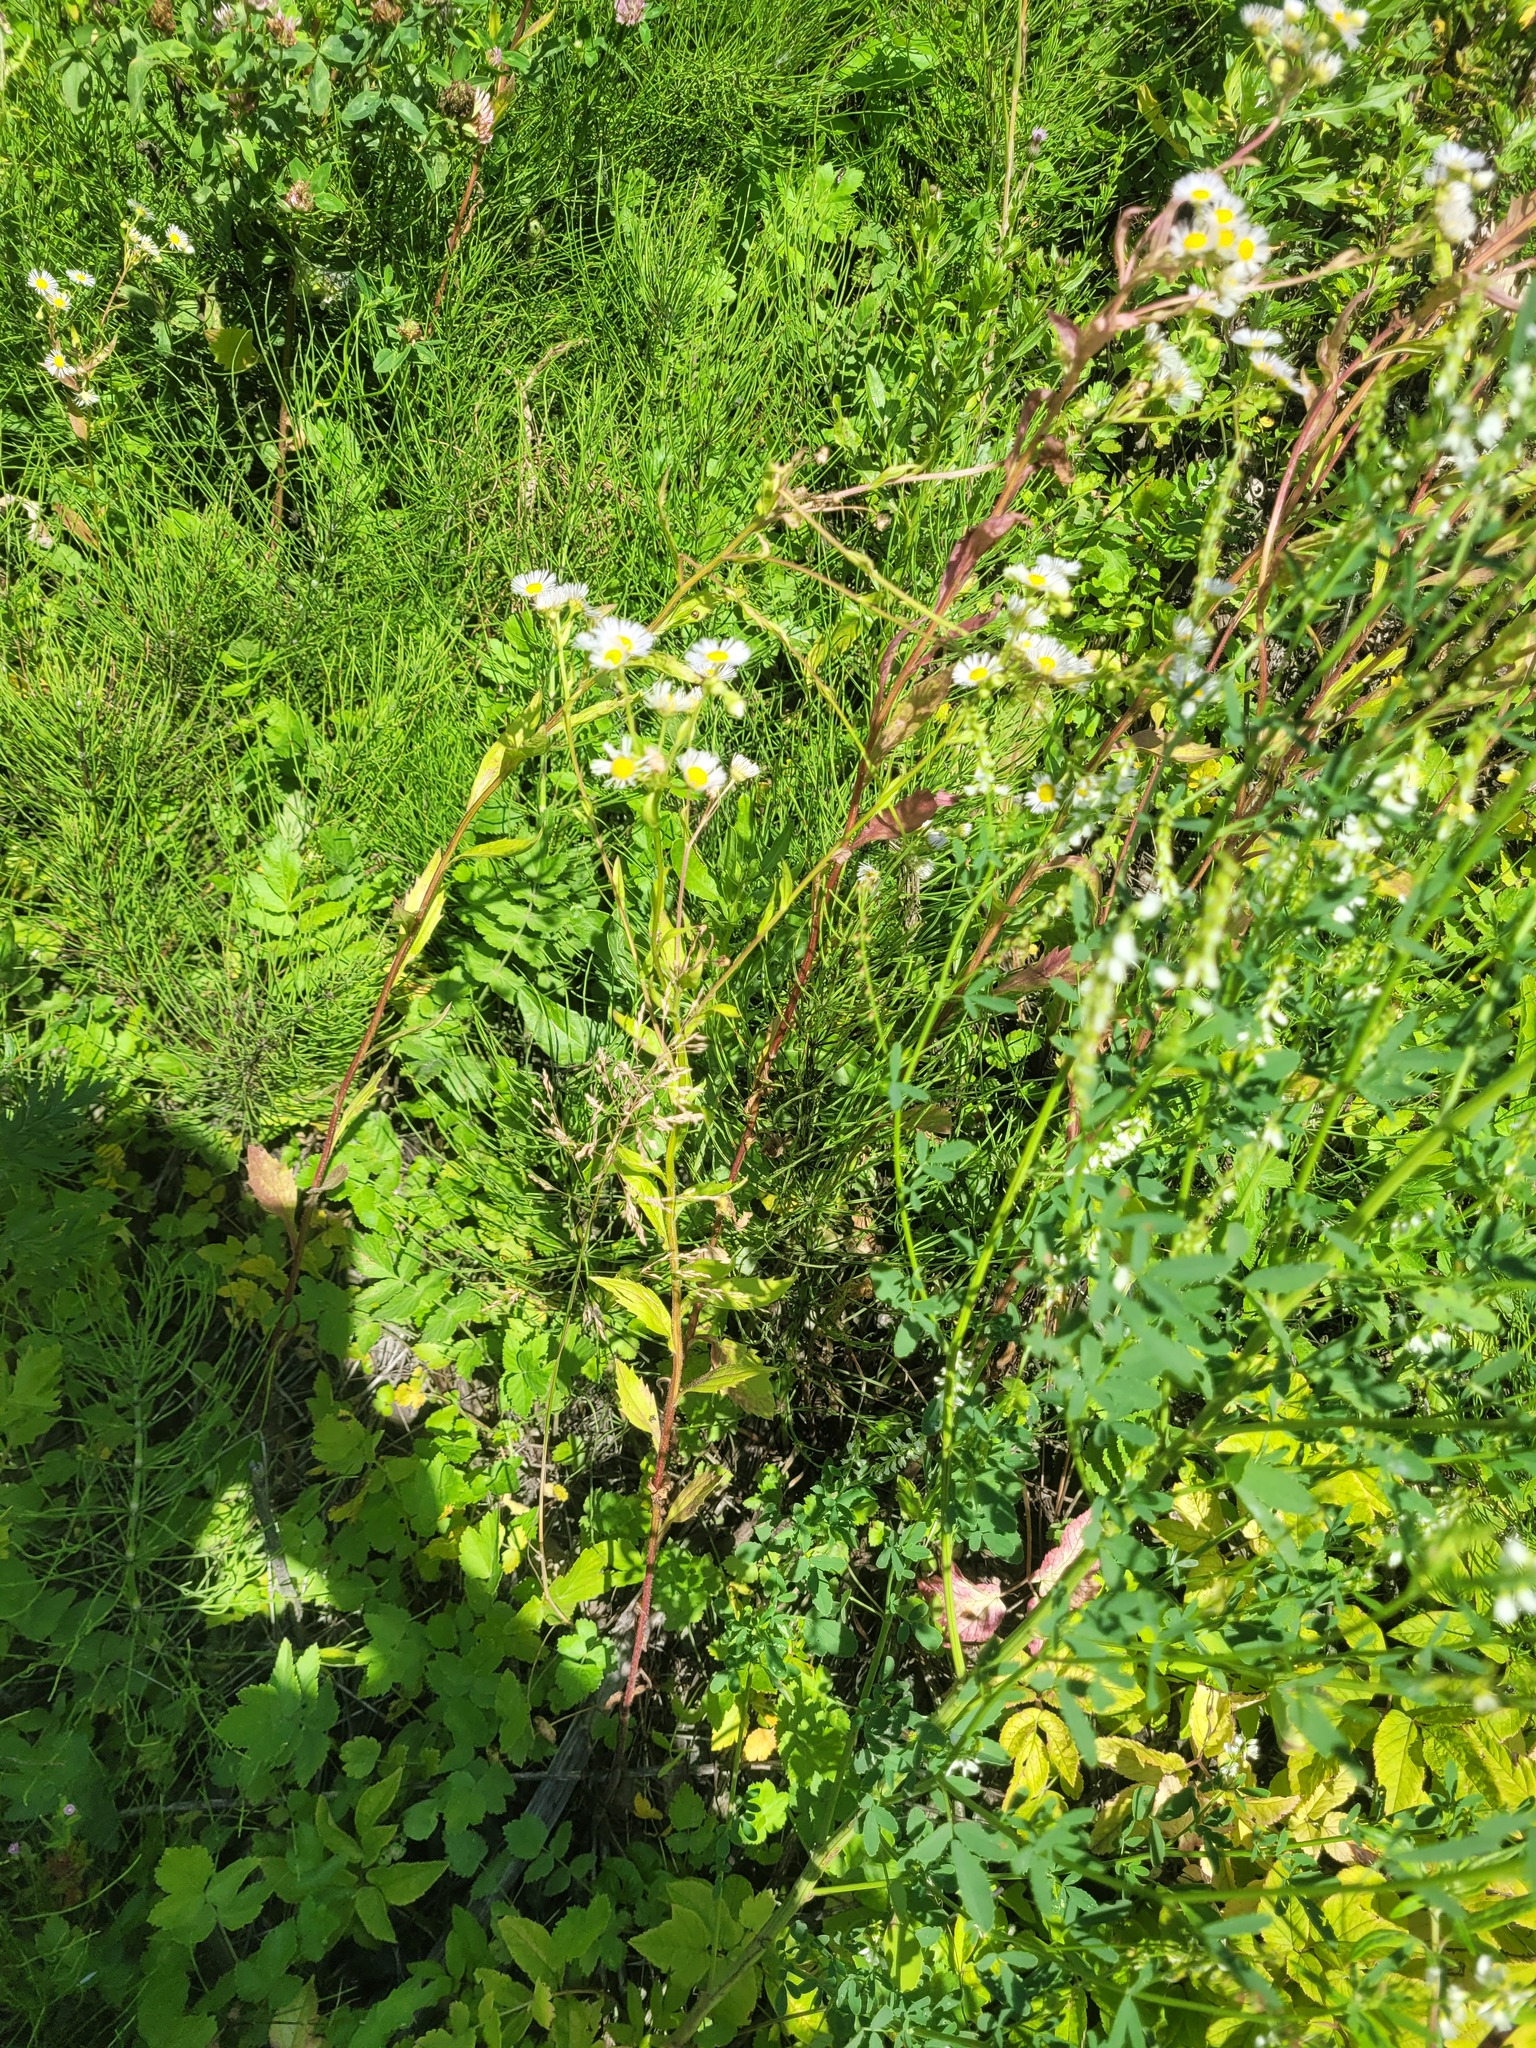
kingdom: Plantae
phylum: Tracheophyta
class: Magnoliopsida
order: Asterales
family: Asteraceae
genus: Erigeron
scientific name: Erigeron annuus
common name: Tall fleabane
